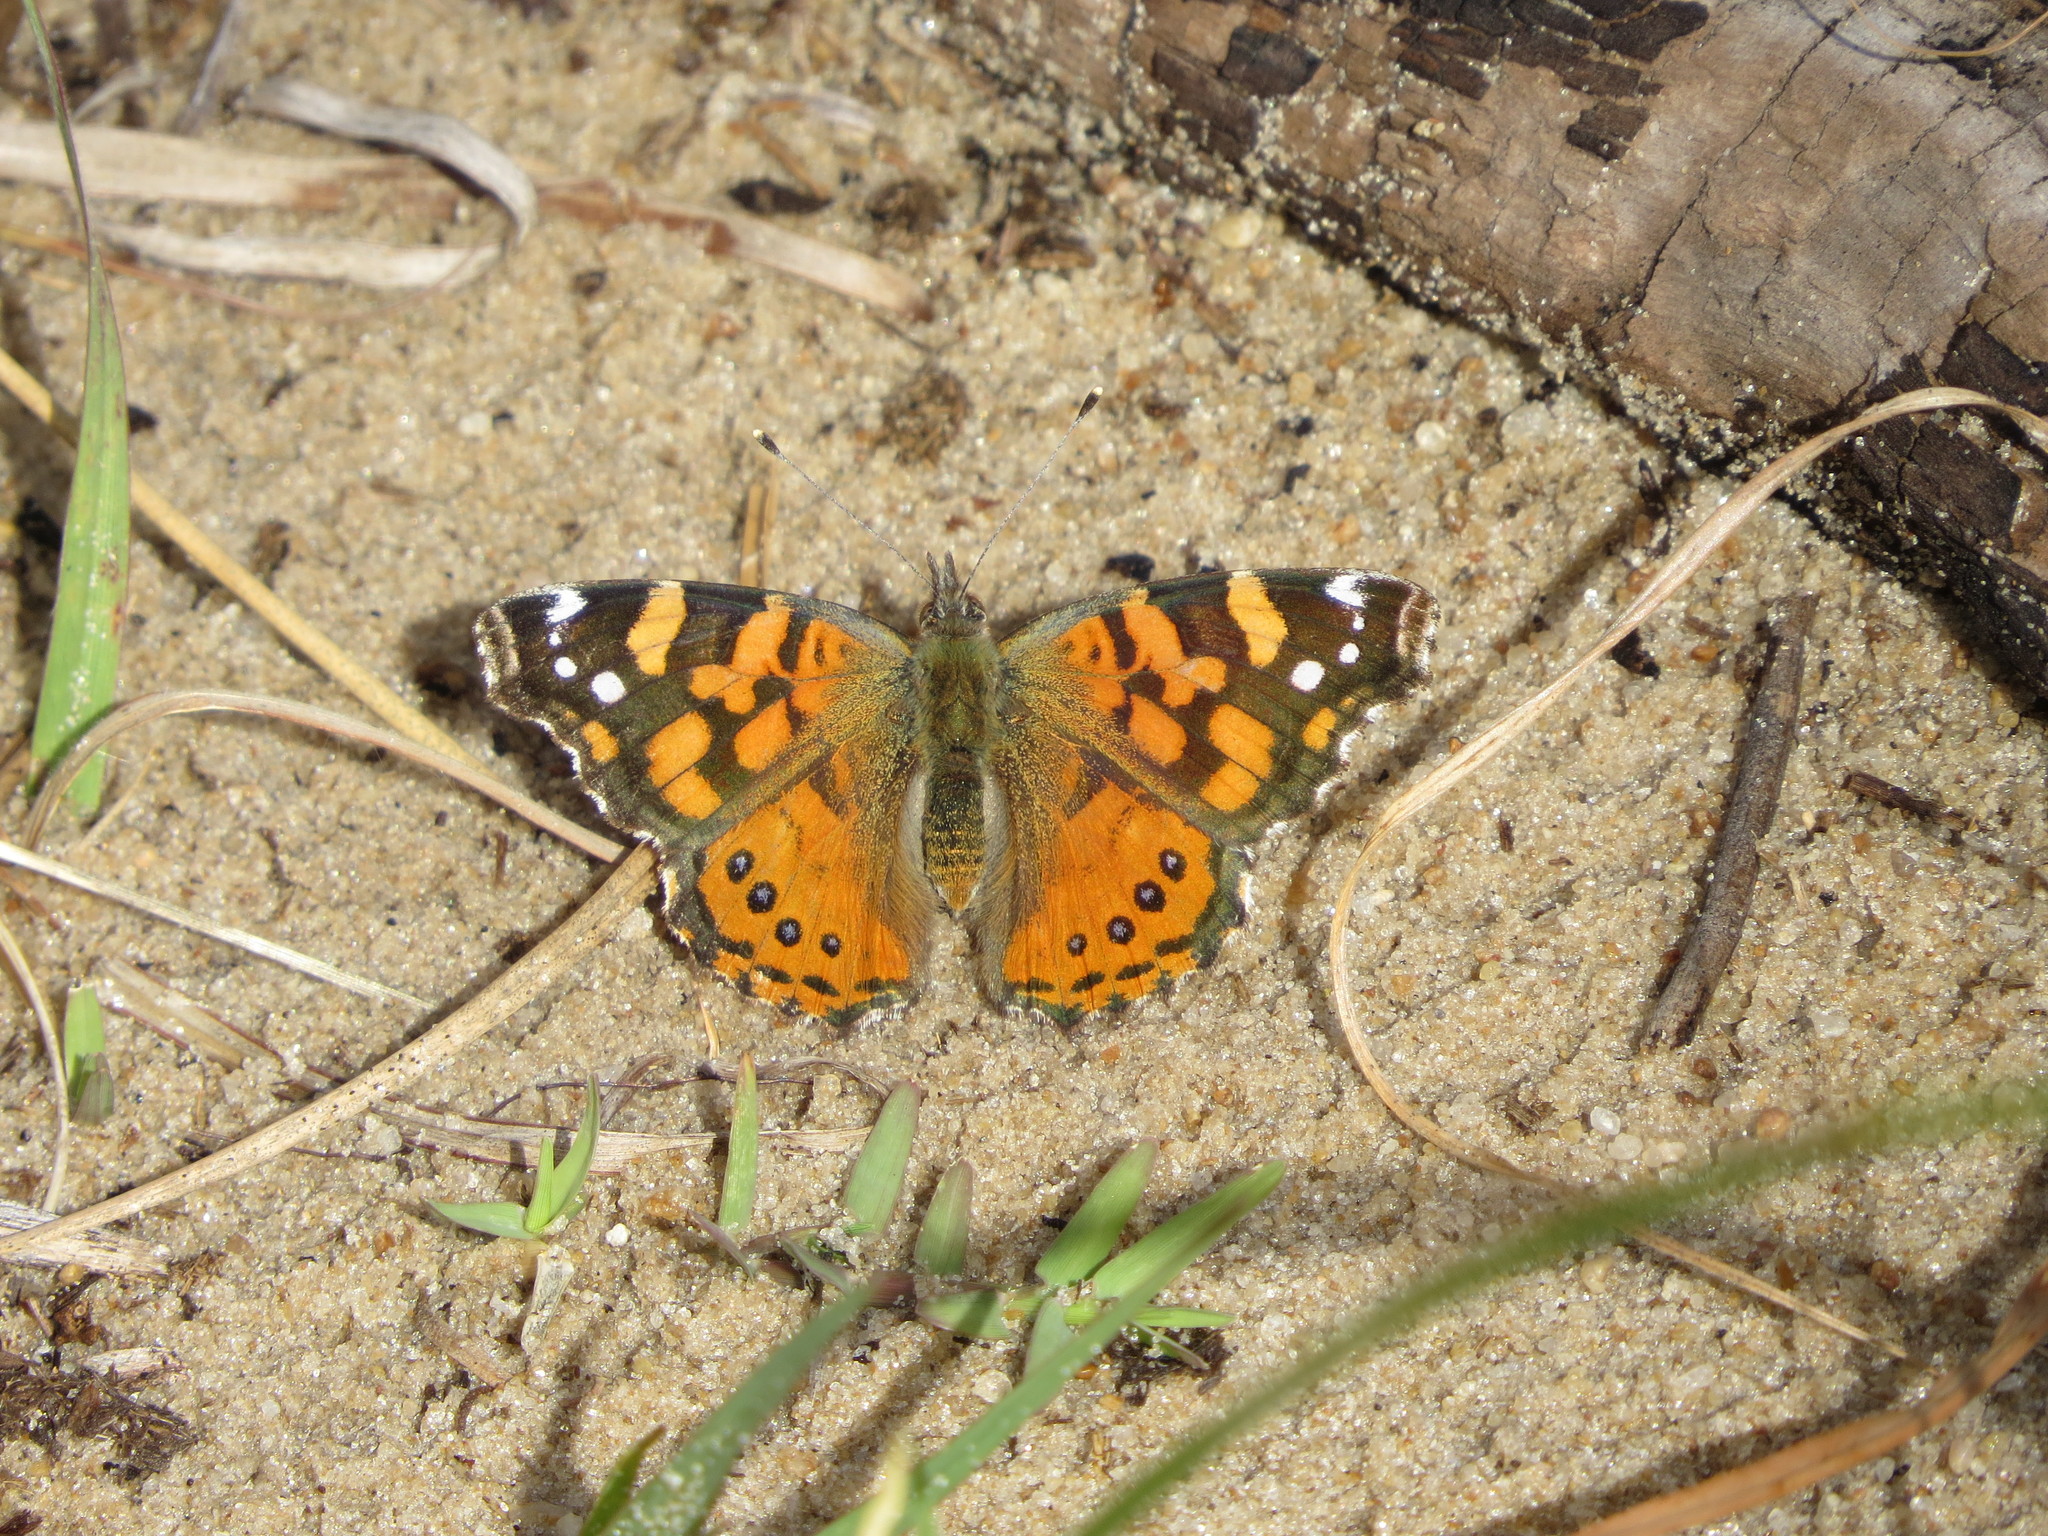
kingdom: Animalia
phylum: Arthropoda
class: Insecta
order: Lepidoptera
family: Nymphalidae
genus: Vanessa
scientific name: Vanessa carye
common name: Subtropical lady
